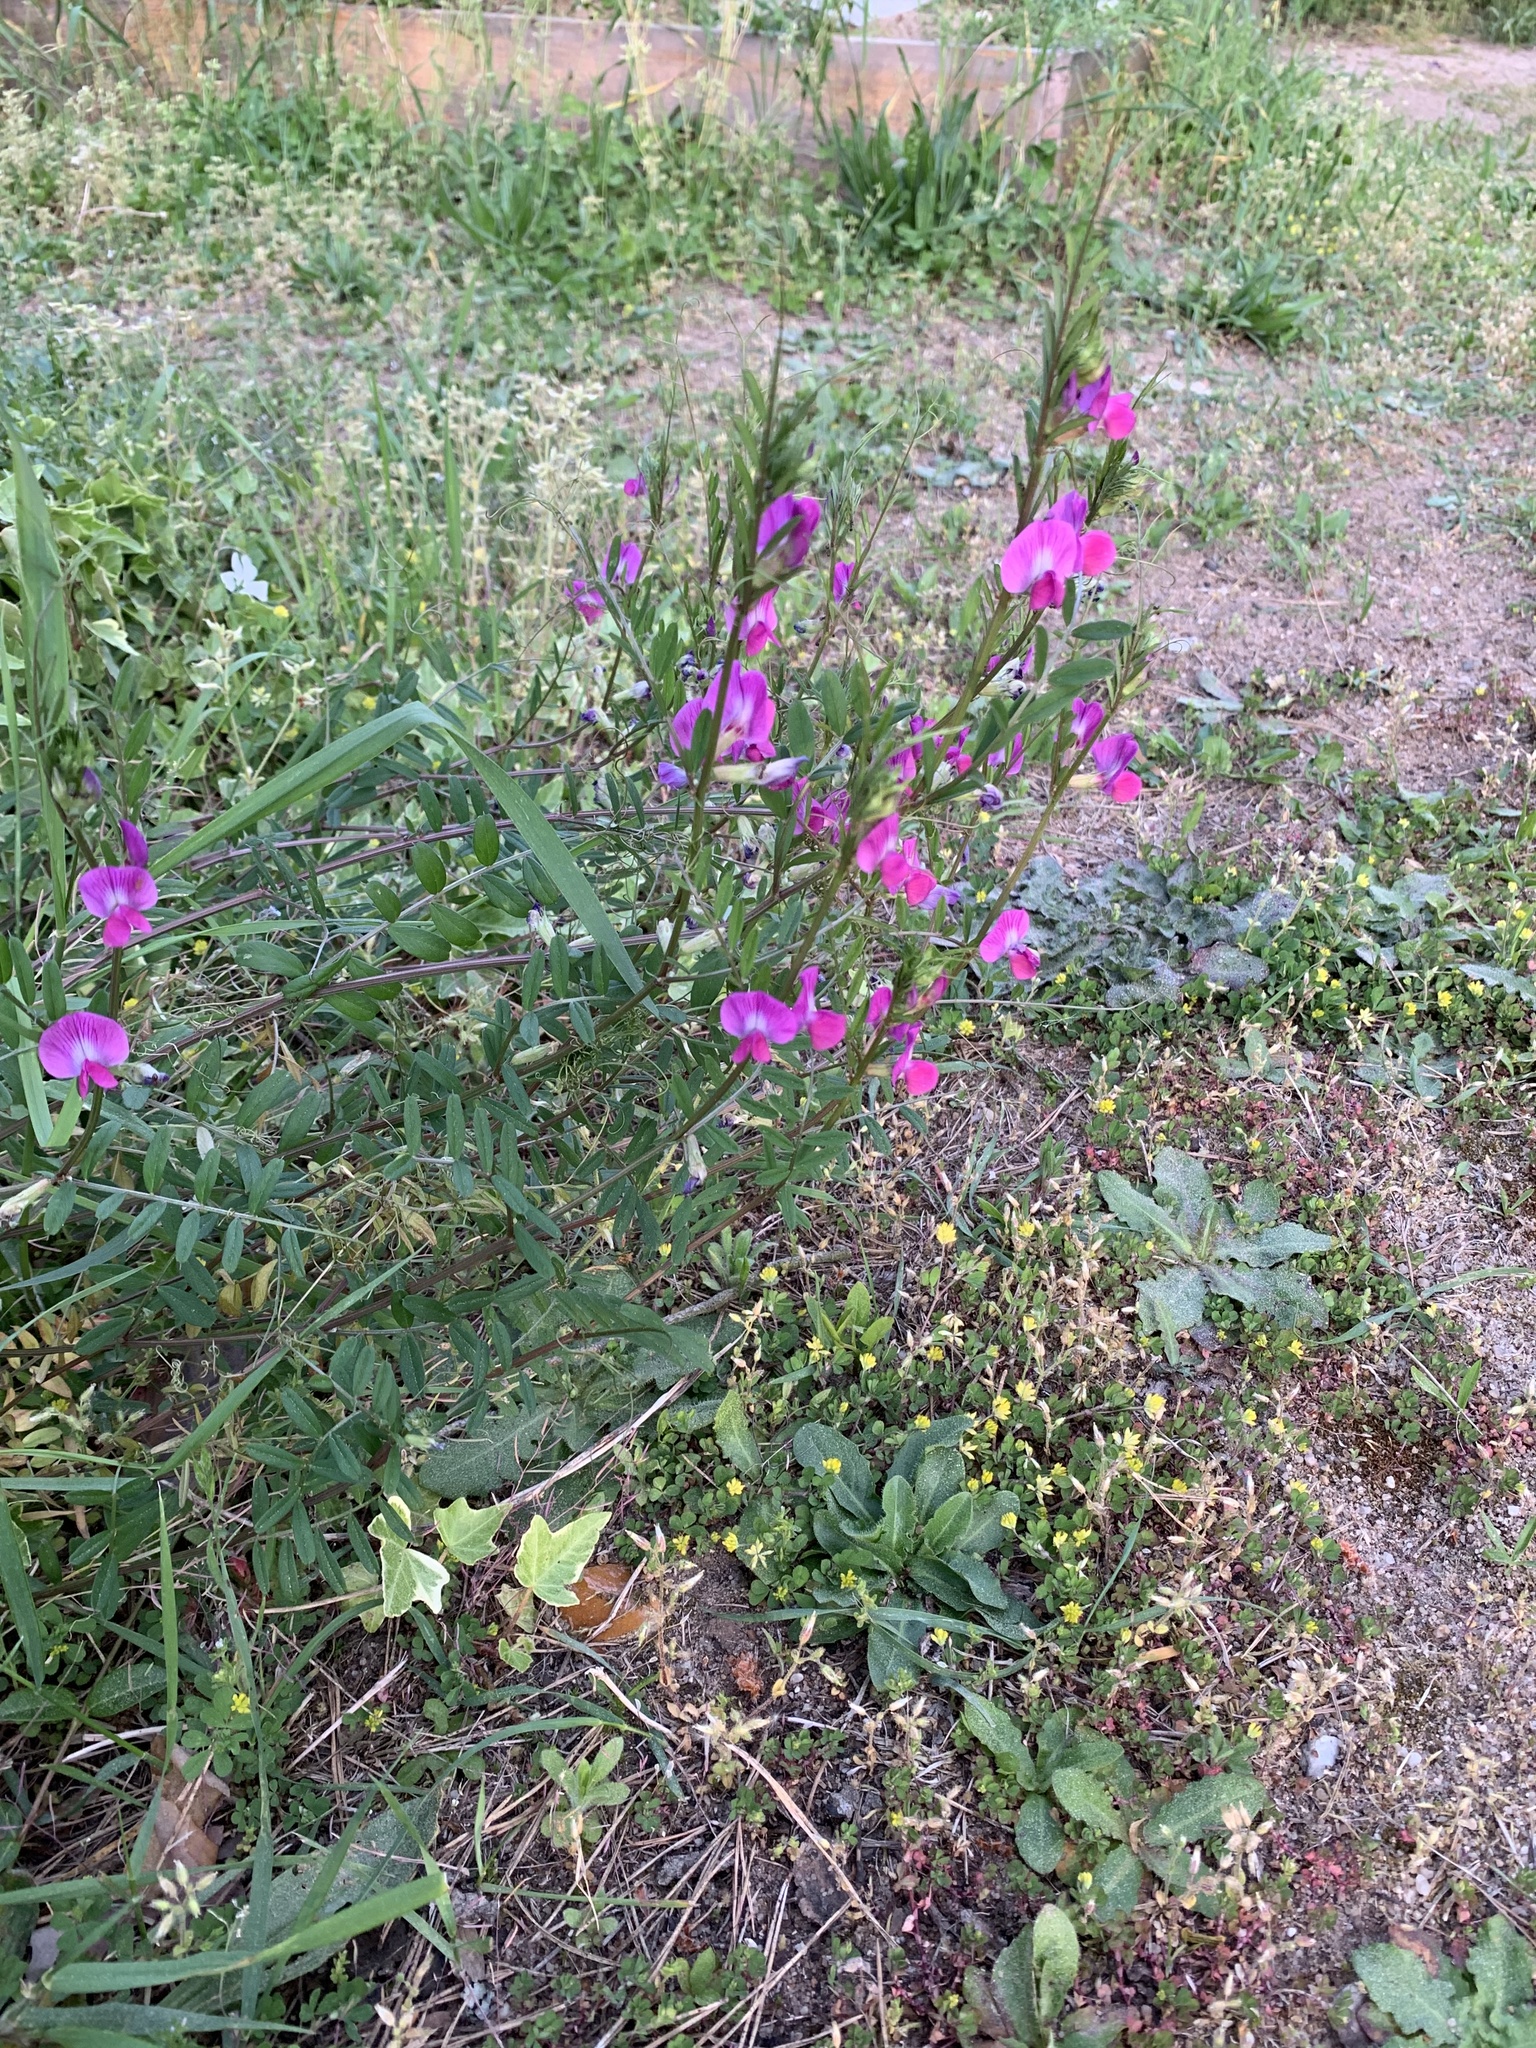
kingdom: Plantae
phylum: Tracheophyta
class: Magnoliopsida
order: Fabales
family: Fabaceae
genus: Vicia
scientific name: Vicia sativa
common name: Garden vetch
